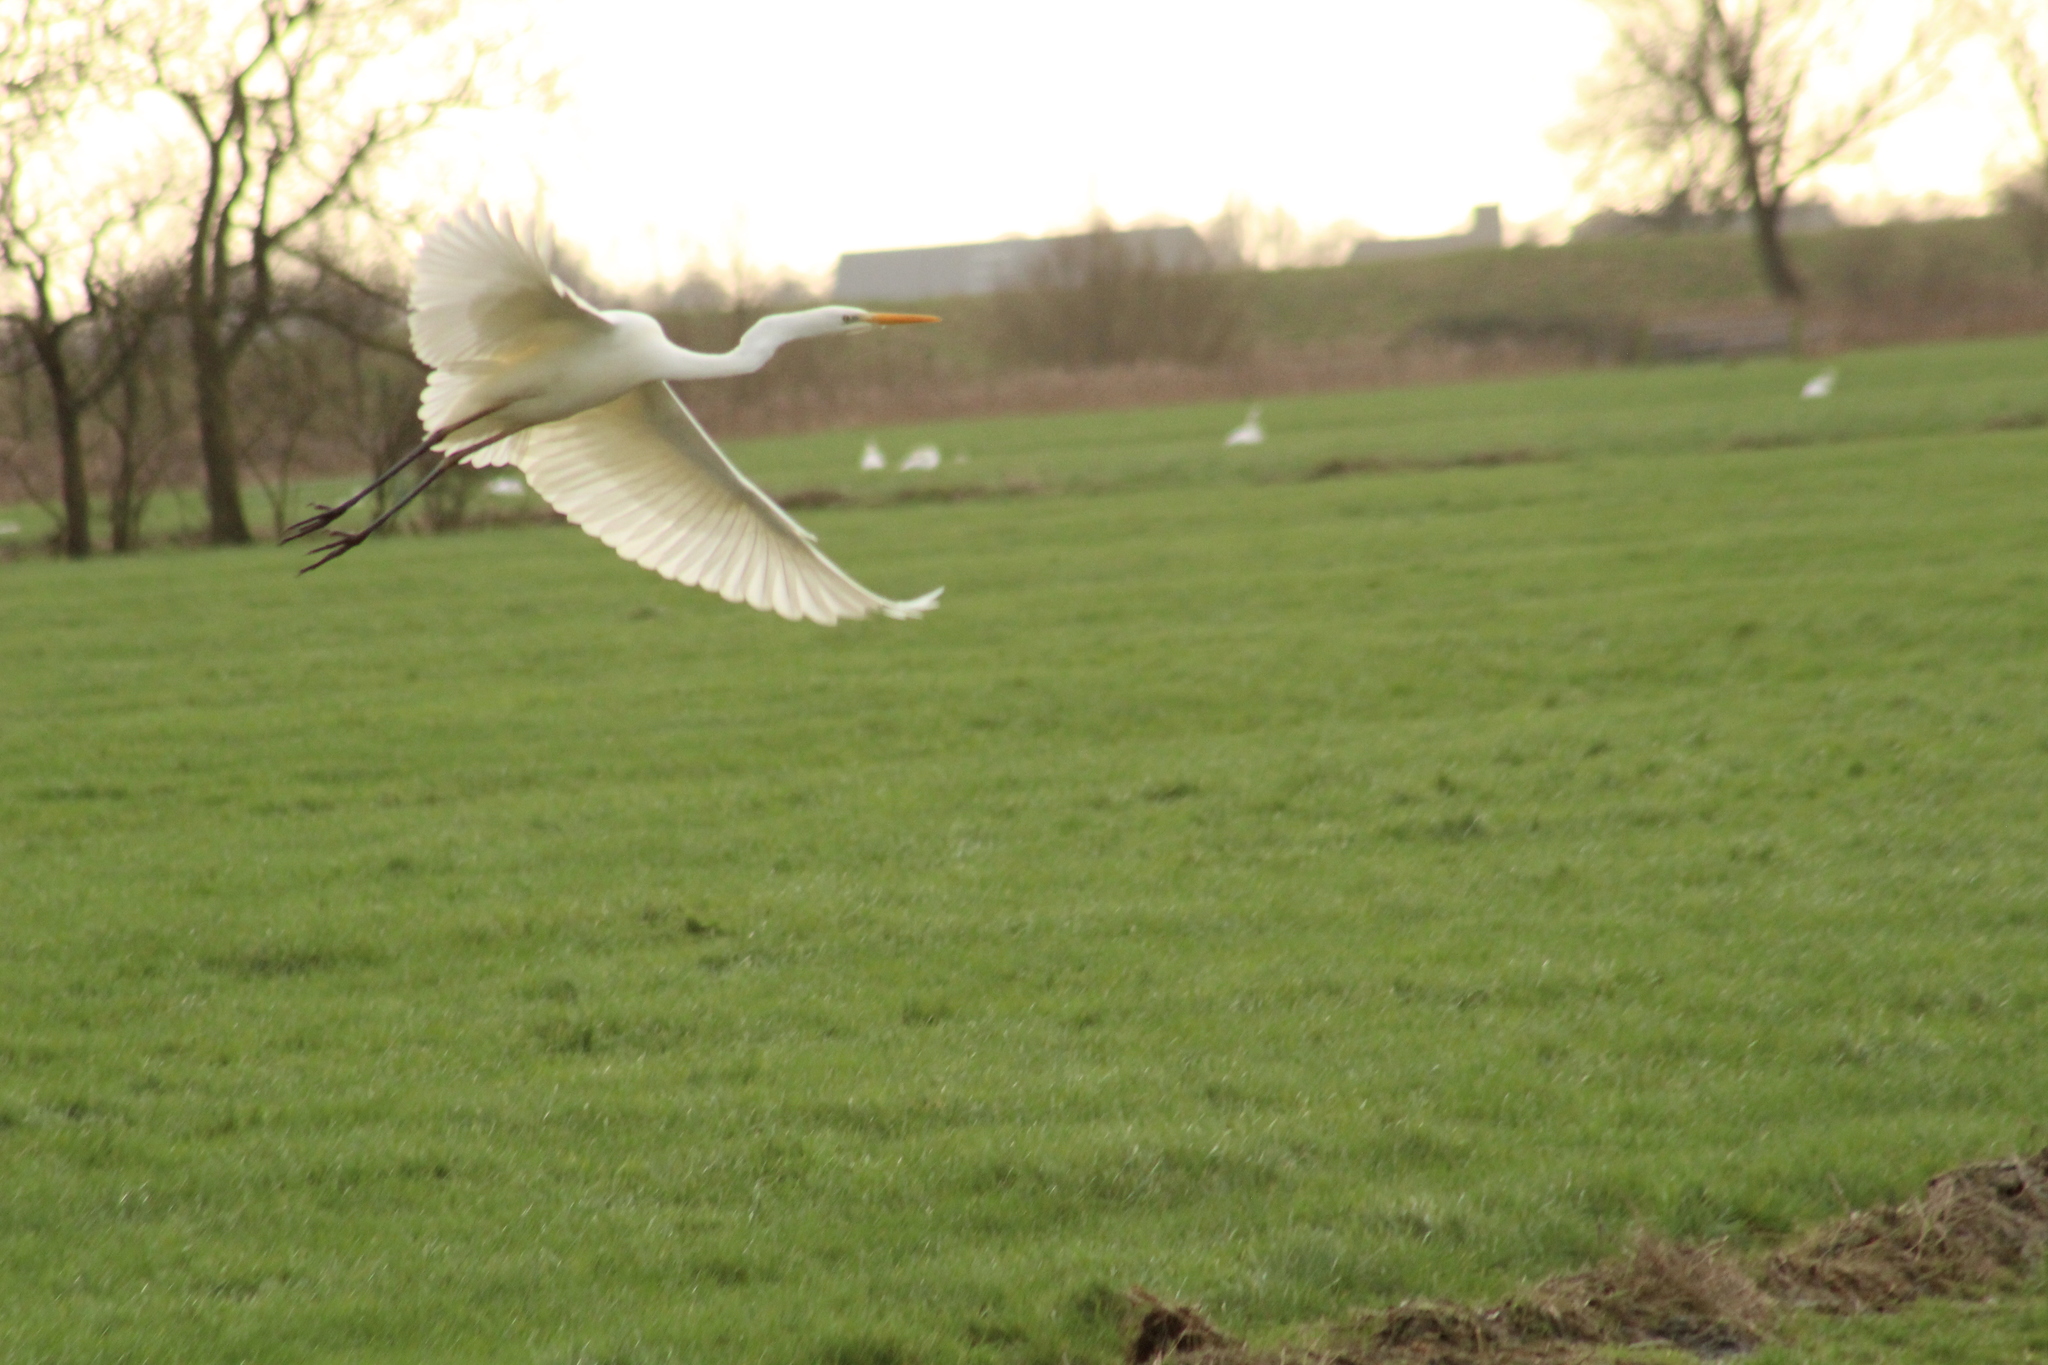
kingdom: Animalia
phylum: Chordata
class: Aves
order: Pelecaniformes
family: Ardeidae
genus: Ardea
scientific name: Ardea alba
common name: Great egret
